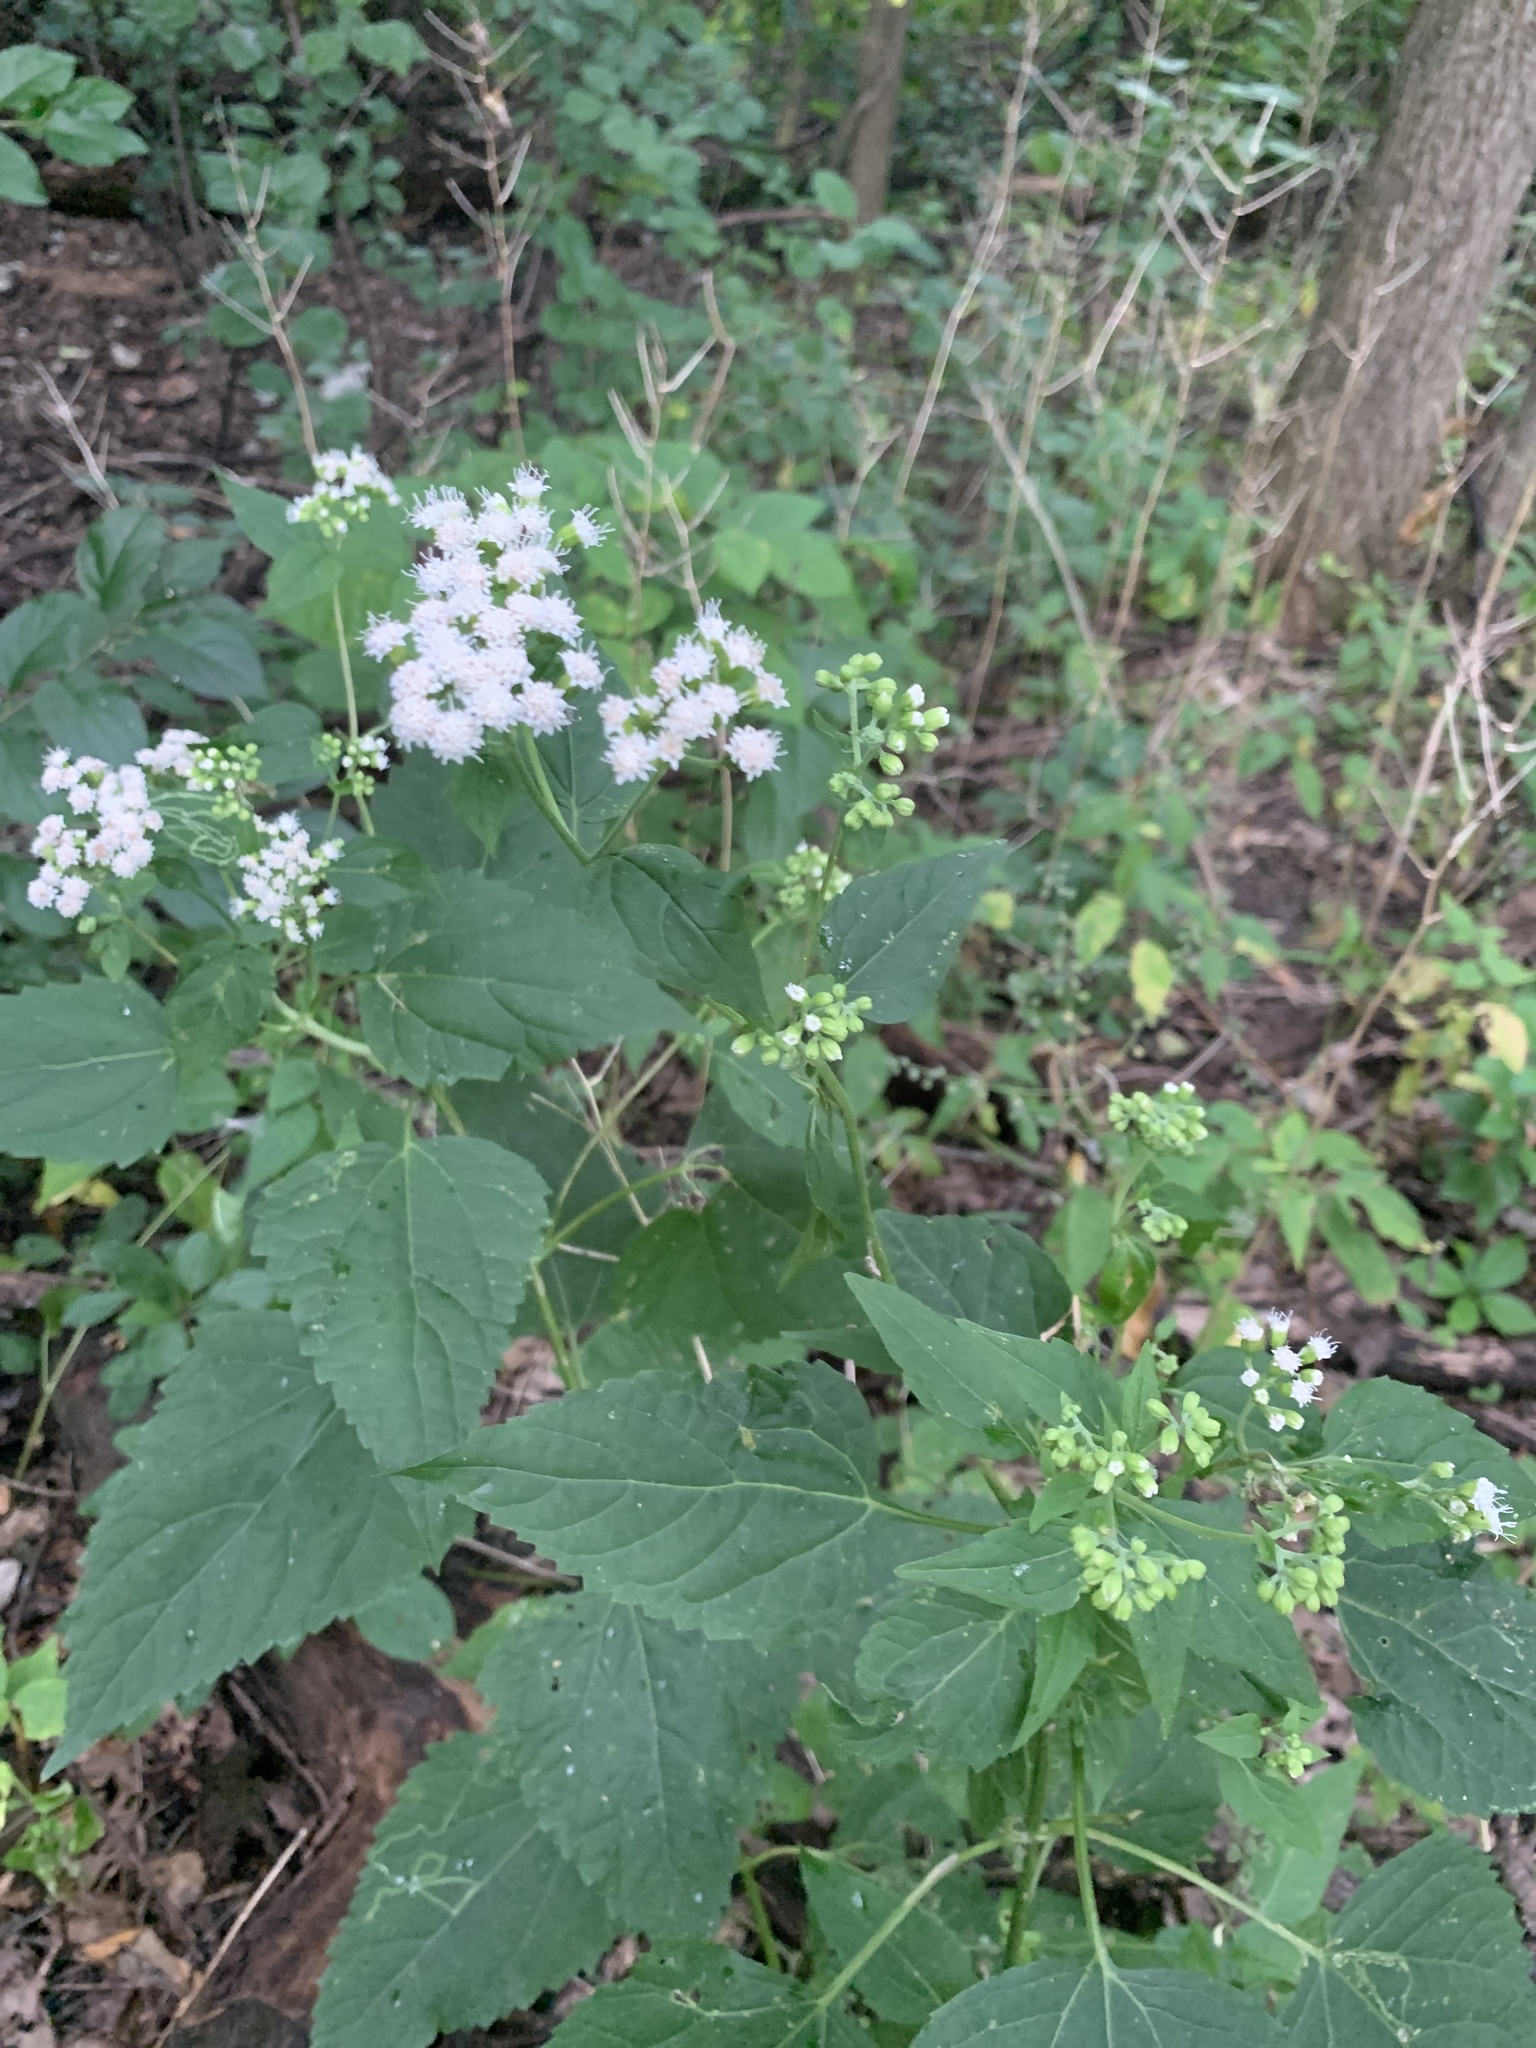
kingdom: Plantae
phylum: Tracheophyta
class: Magnoliopsida
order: Asterales
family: Asteraceae
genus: Ageratina
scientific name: Ageratina altissima
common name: White snakeroot
